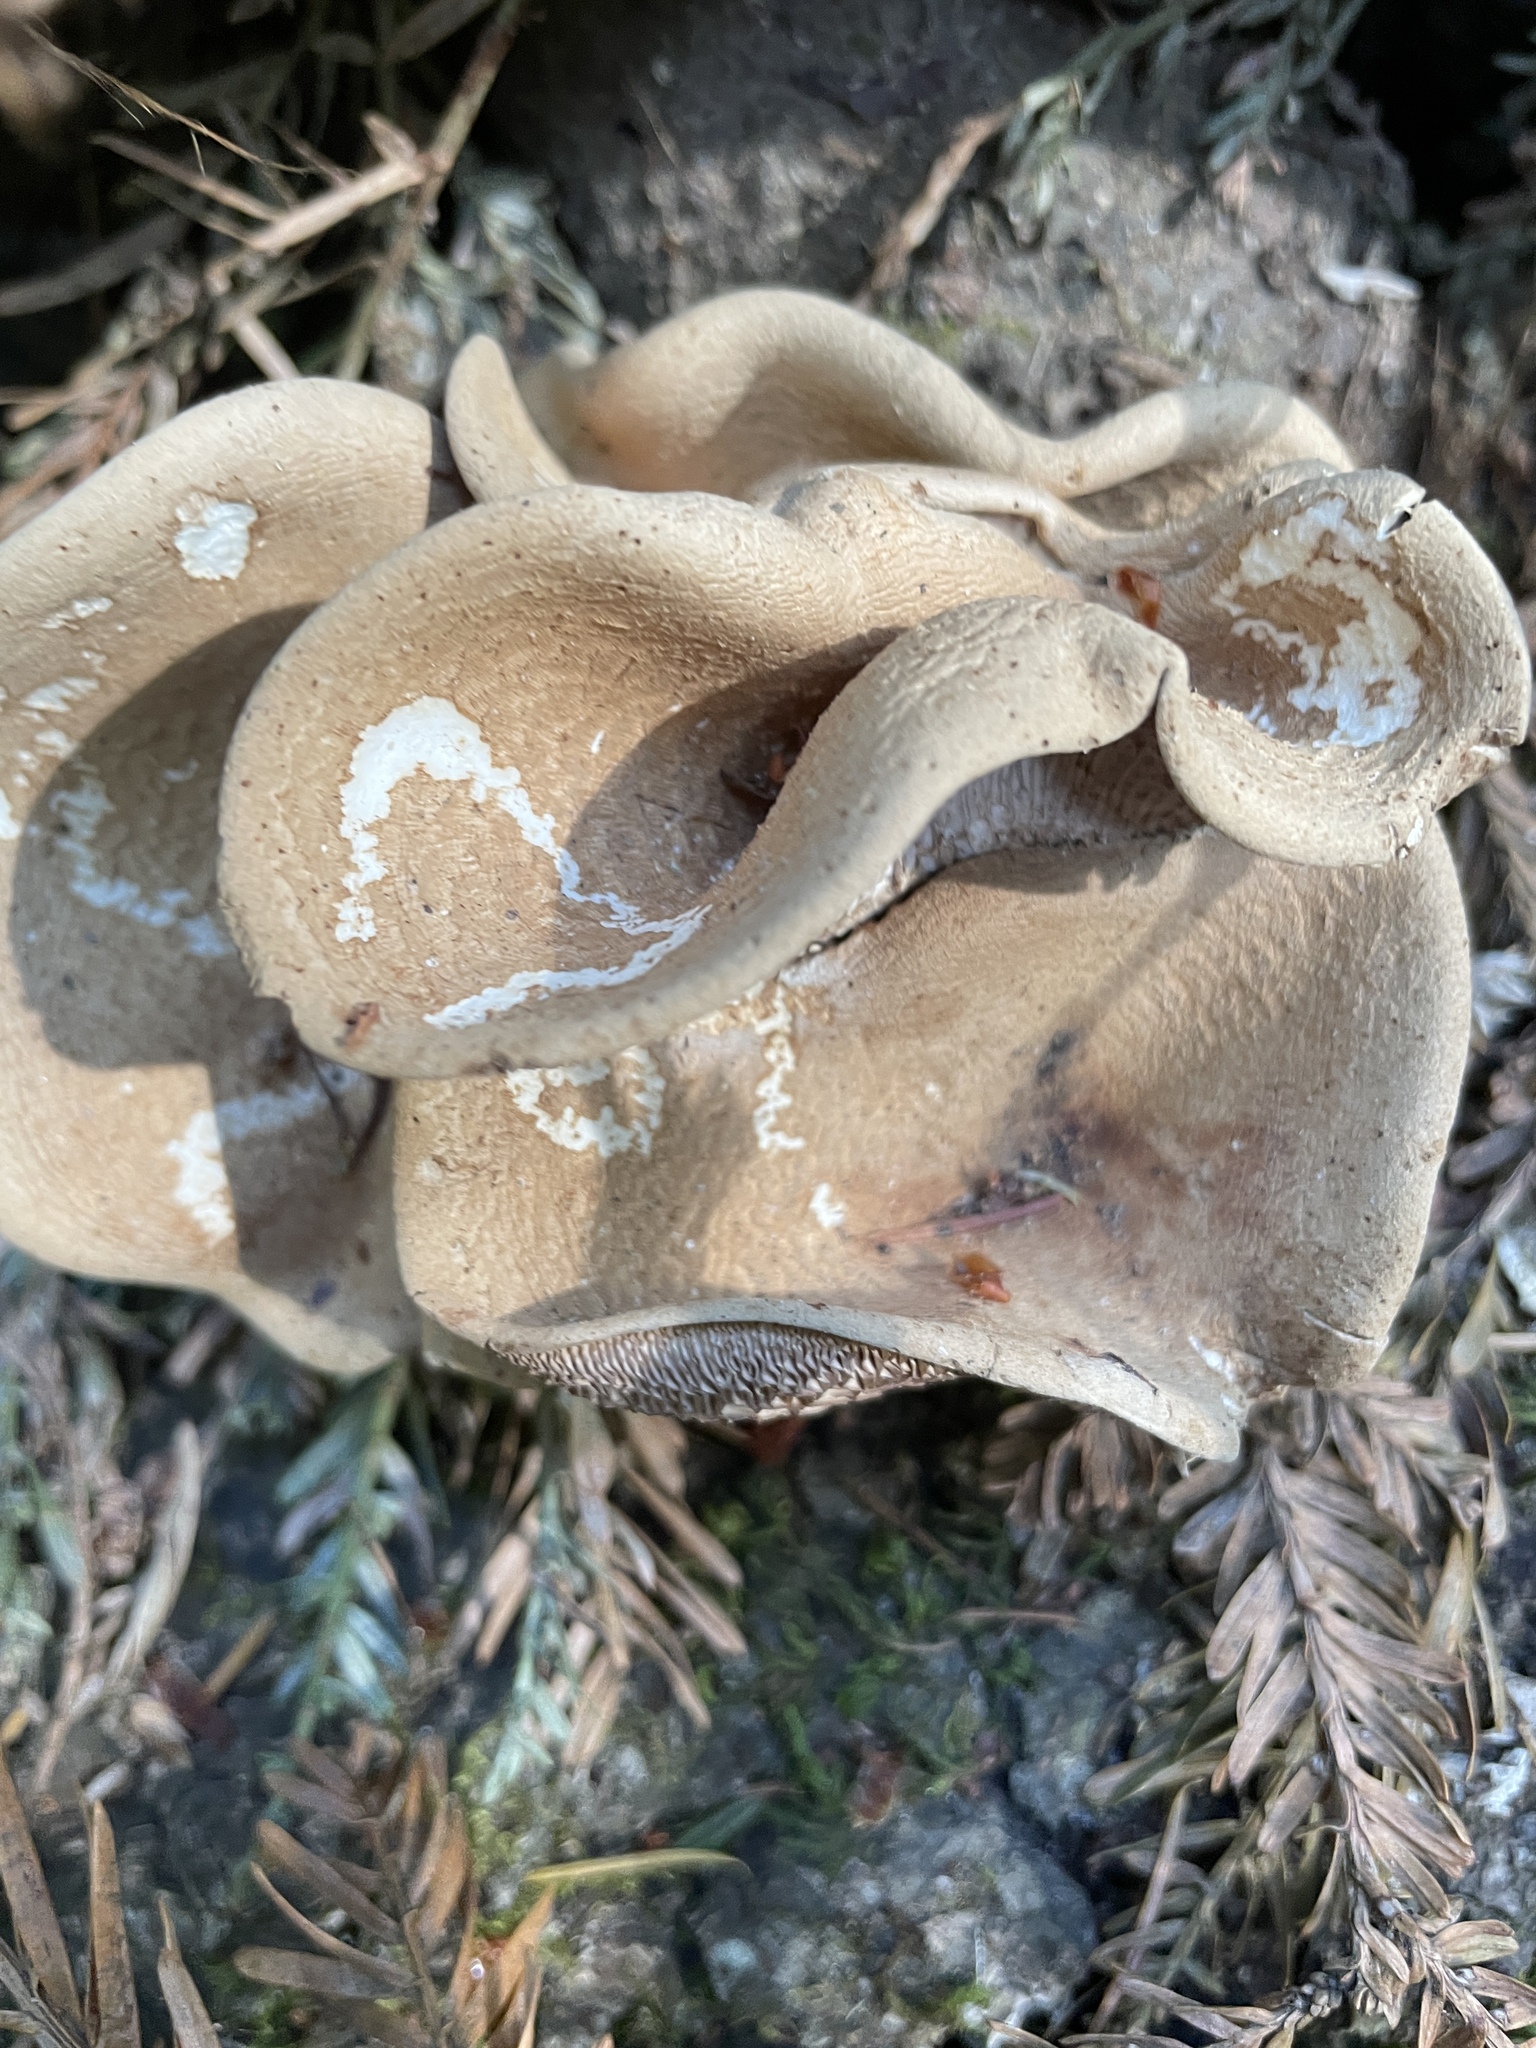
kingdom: Fungi
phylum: Basidiomycota
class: Agaricomycetes
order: Polyporales
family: Panaceae
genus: Panus
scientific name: Panus conchatus
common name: Lilac oysterling
